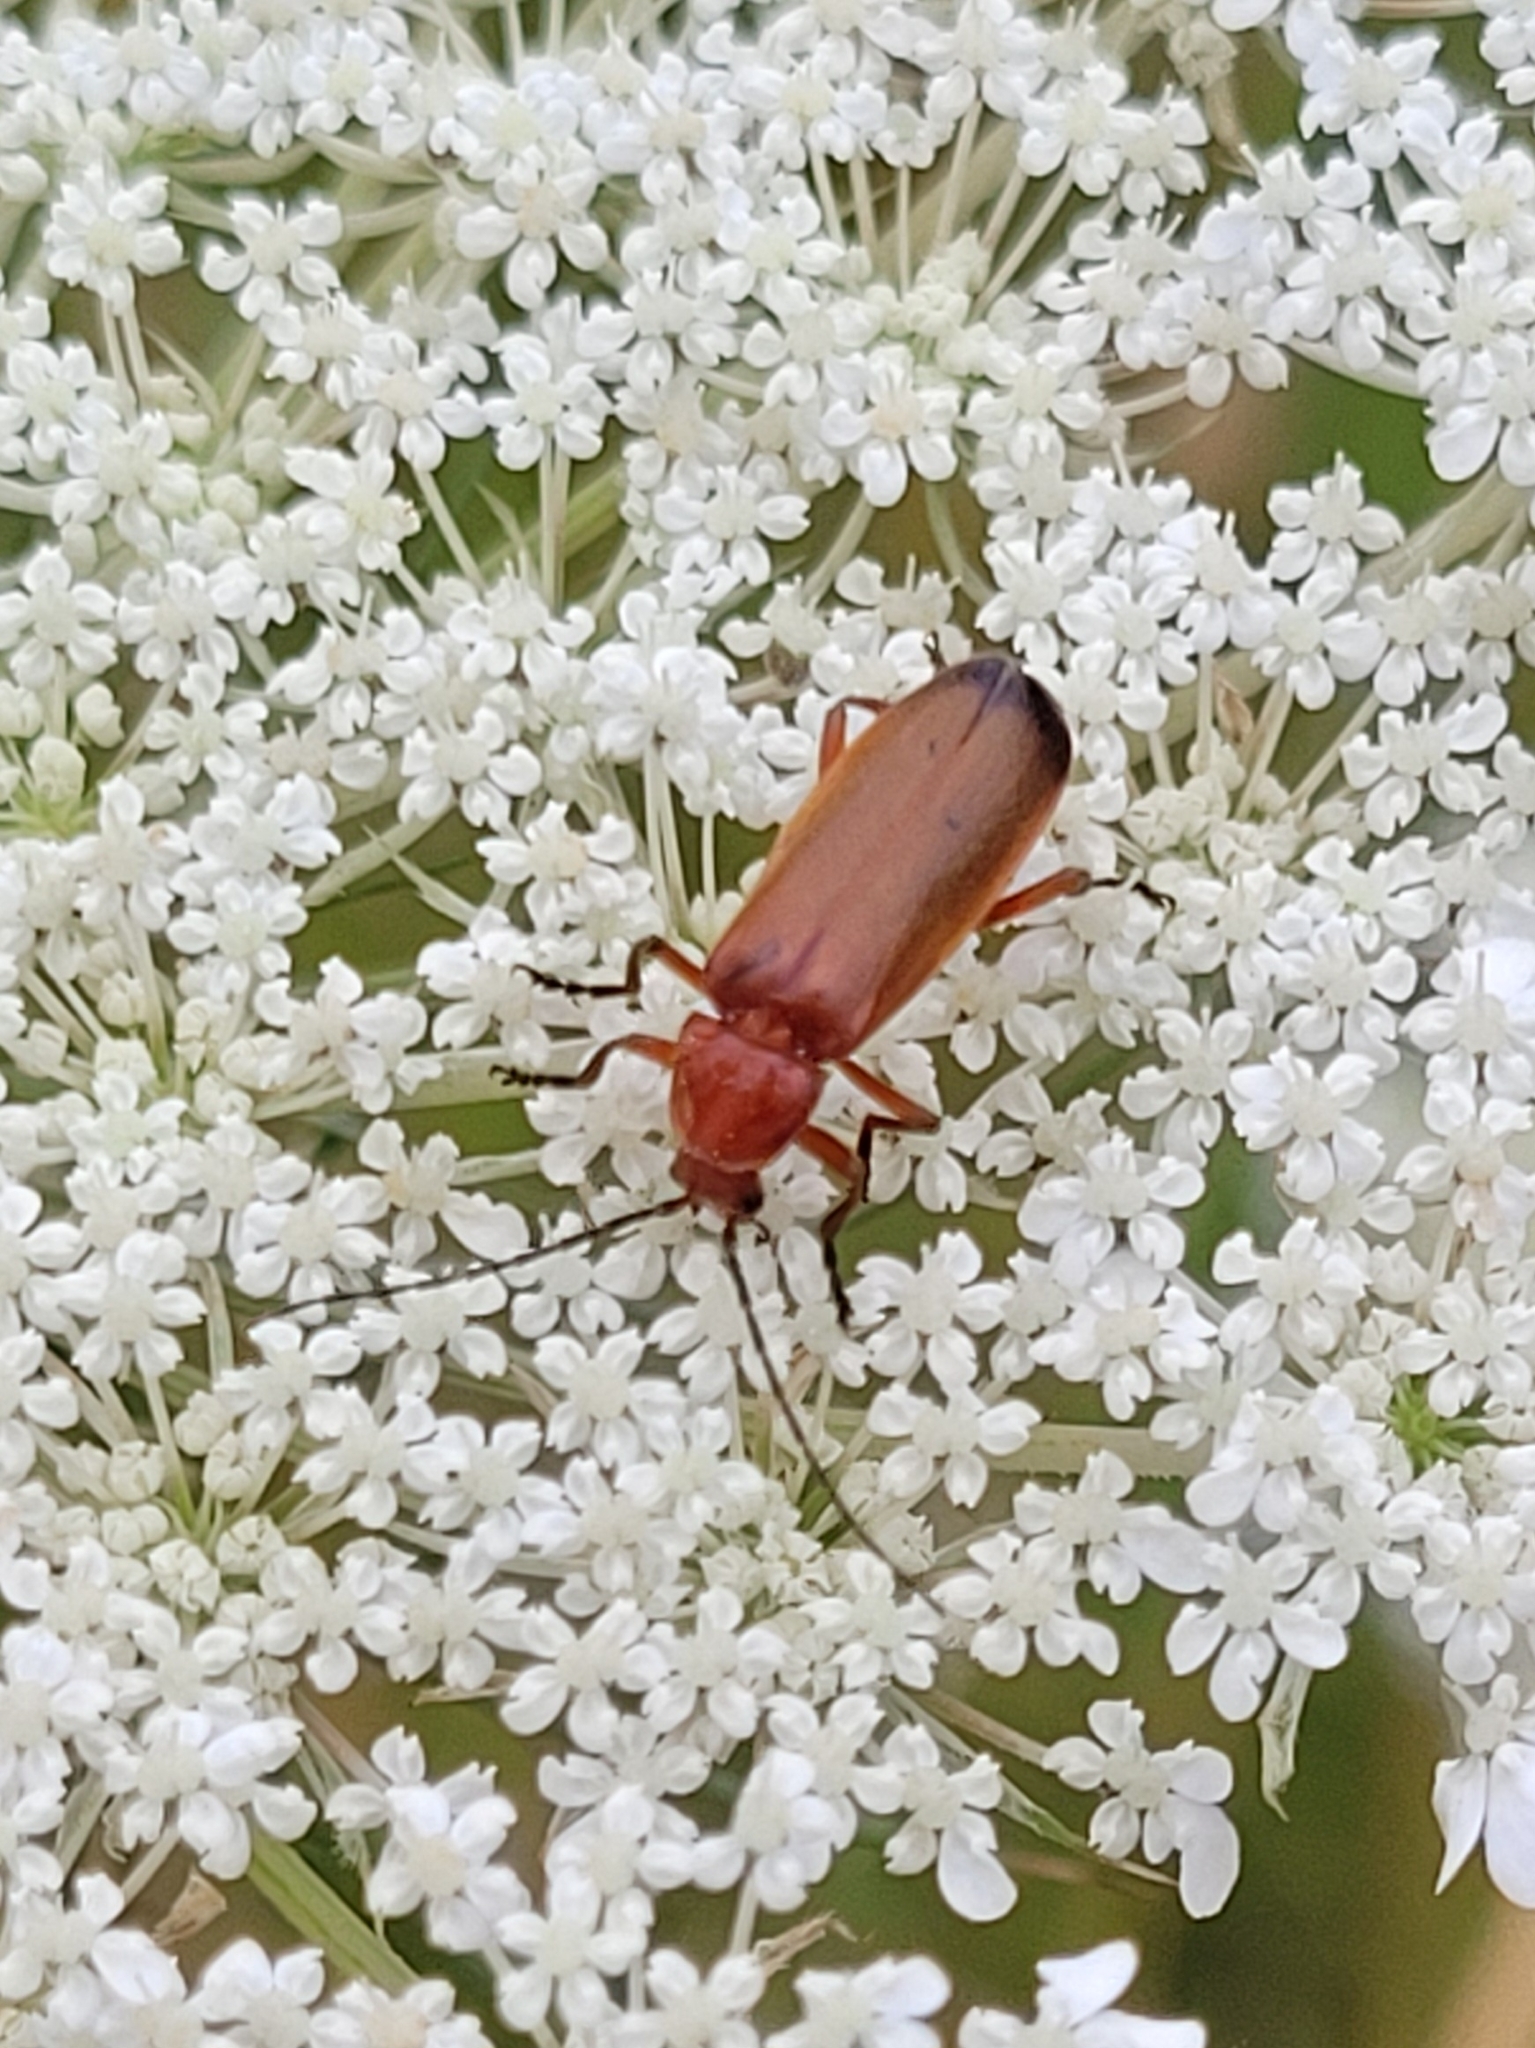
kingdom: Animalia
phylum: Arthropoda
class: Insecta
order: Coleoptera
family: Cantharidae
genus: Rhagonycha
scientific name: Rhagonycha fulva
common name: Common red soldier beetle
